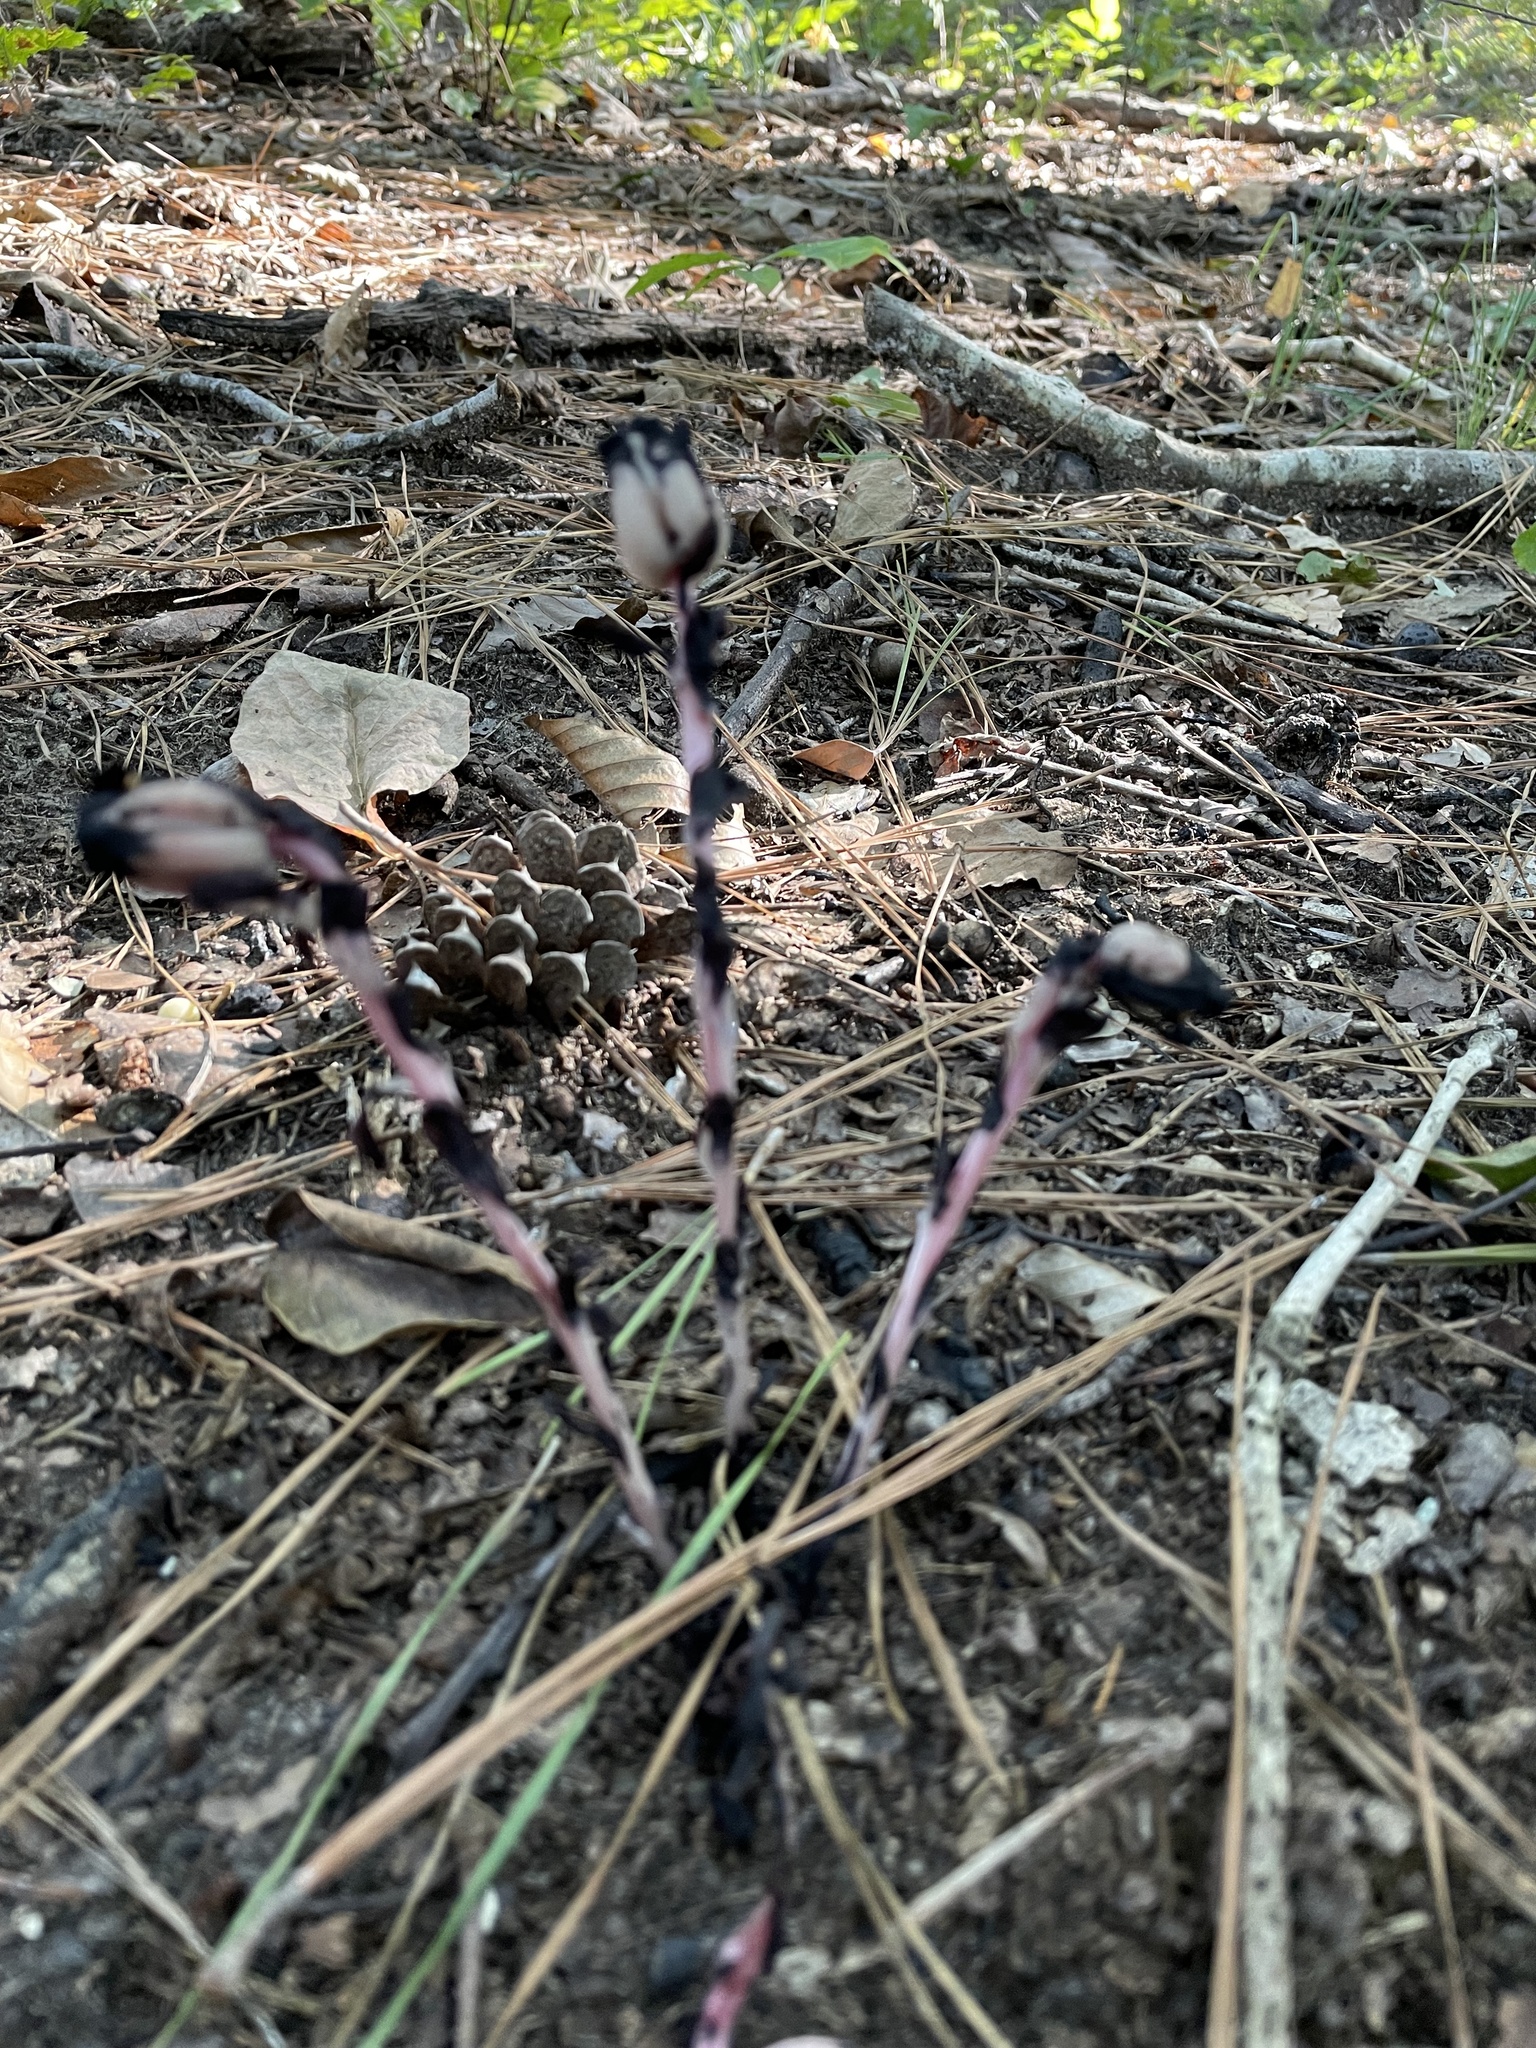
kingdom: Plantae
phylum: Tracheophyta
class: Magnoliopsida
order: Ericales
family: Ericaceae
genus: Monotropa
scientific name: Monotropa uniflora
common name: Convulsion root
